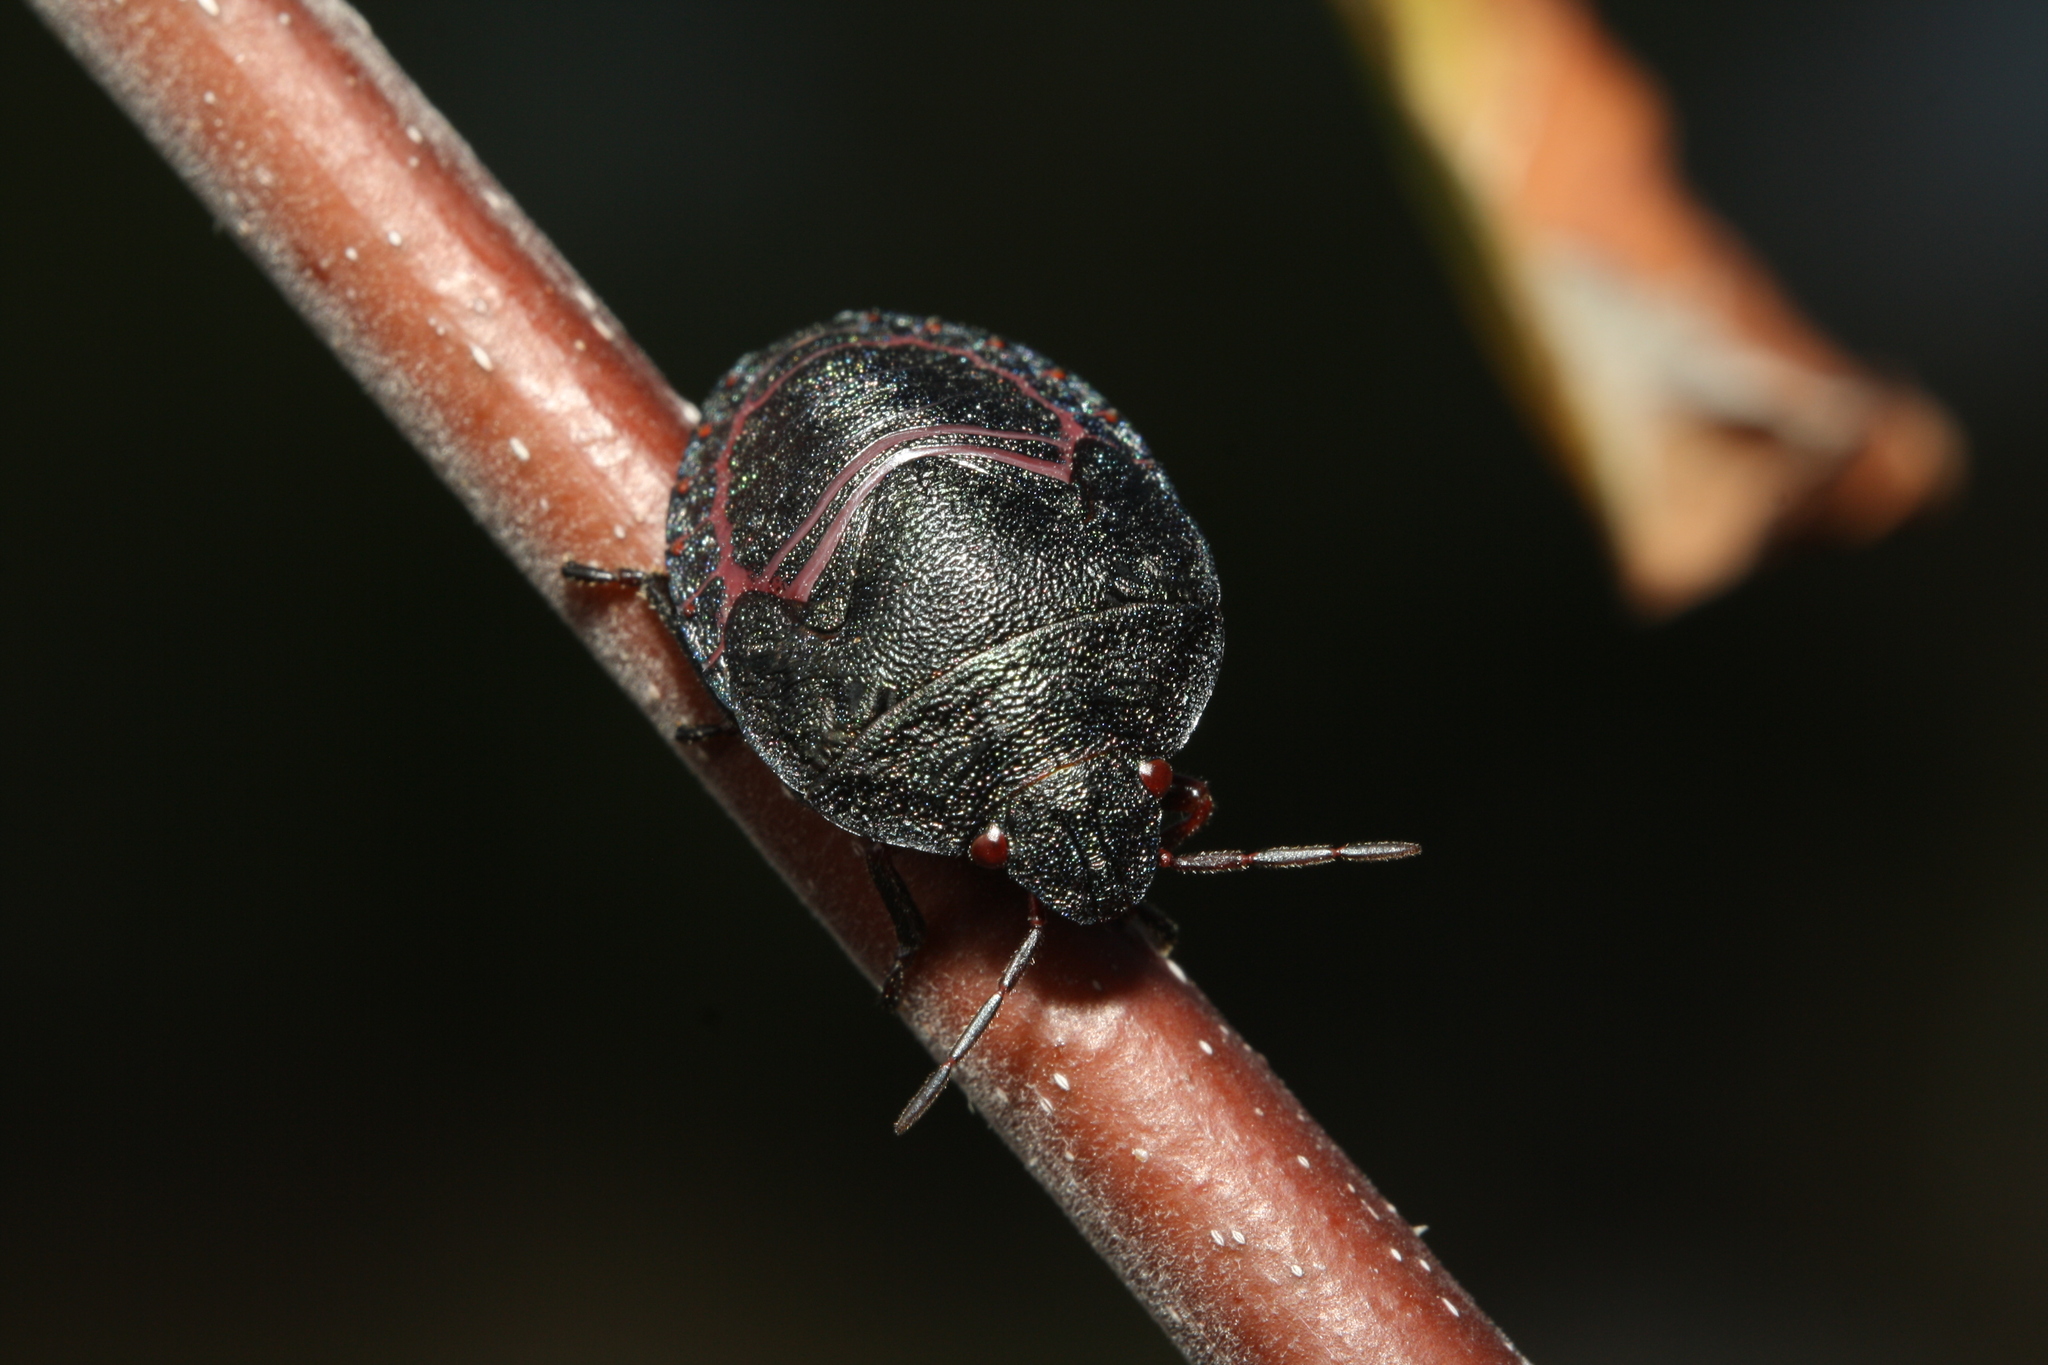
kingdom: Animalia
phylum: Arthropoda
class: Insecta
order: Hemiptera
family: Scutelleridae
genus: Solenosthedium
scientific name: Solenosthedium bilunatum
